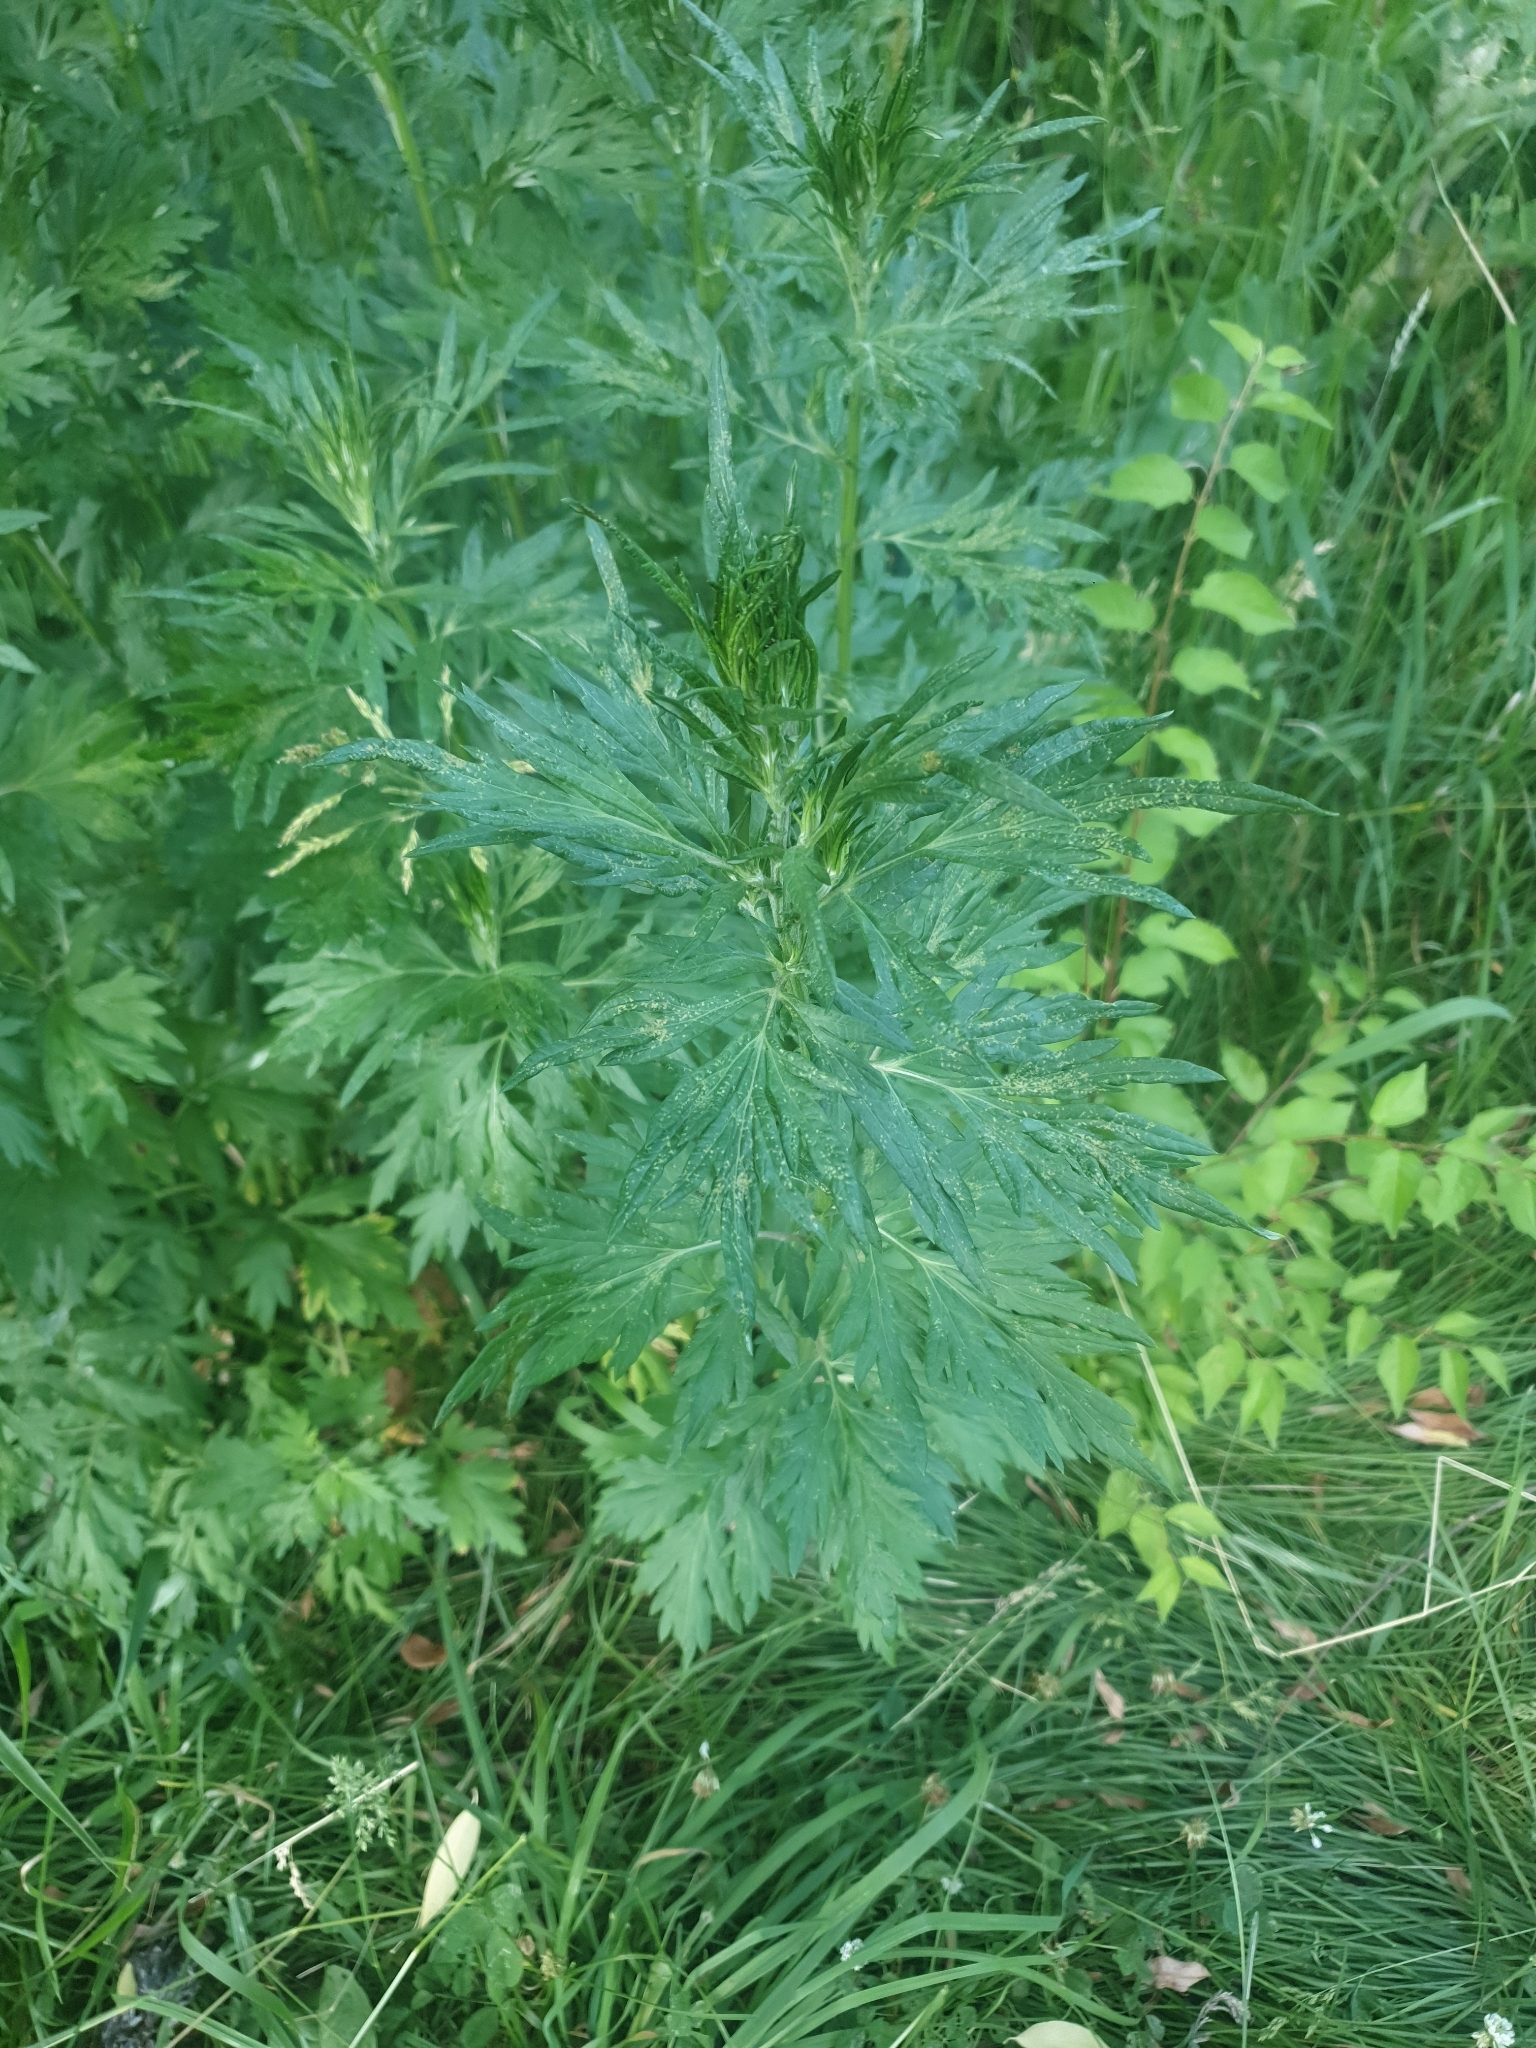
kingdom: Plantae
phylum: Tracheophyta
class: Magnoliopsida
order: Asterales
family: Asteraceae
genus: Artemisia
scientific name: Artemisia vulgaris
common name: Mugwort
